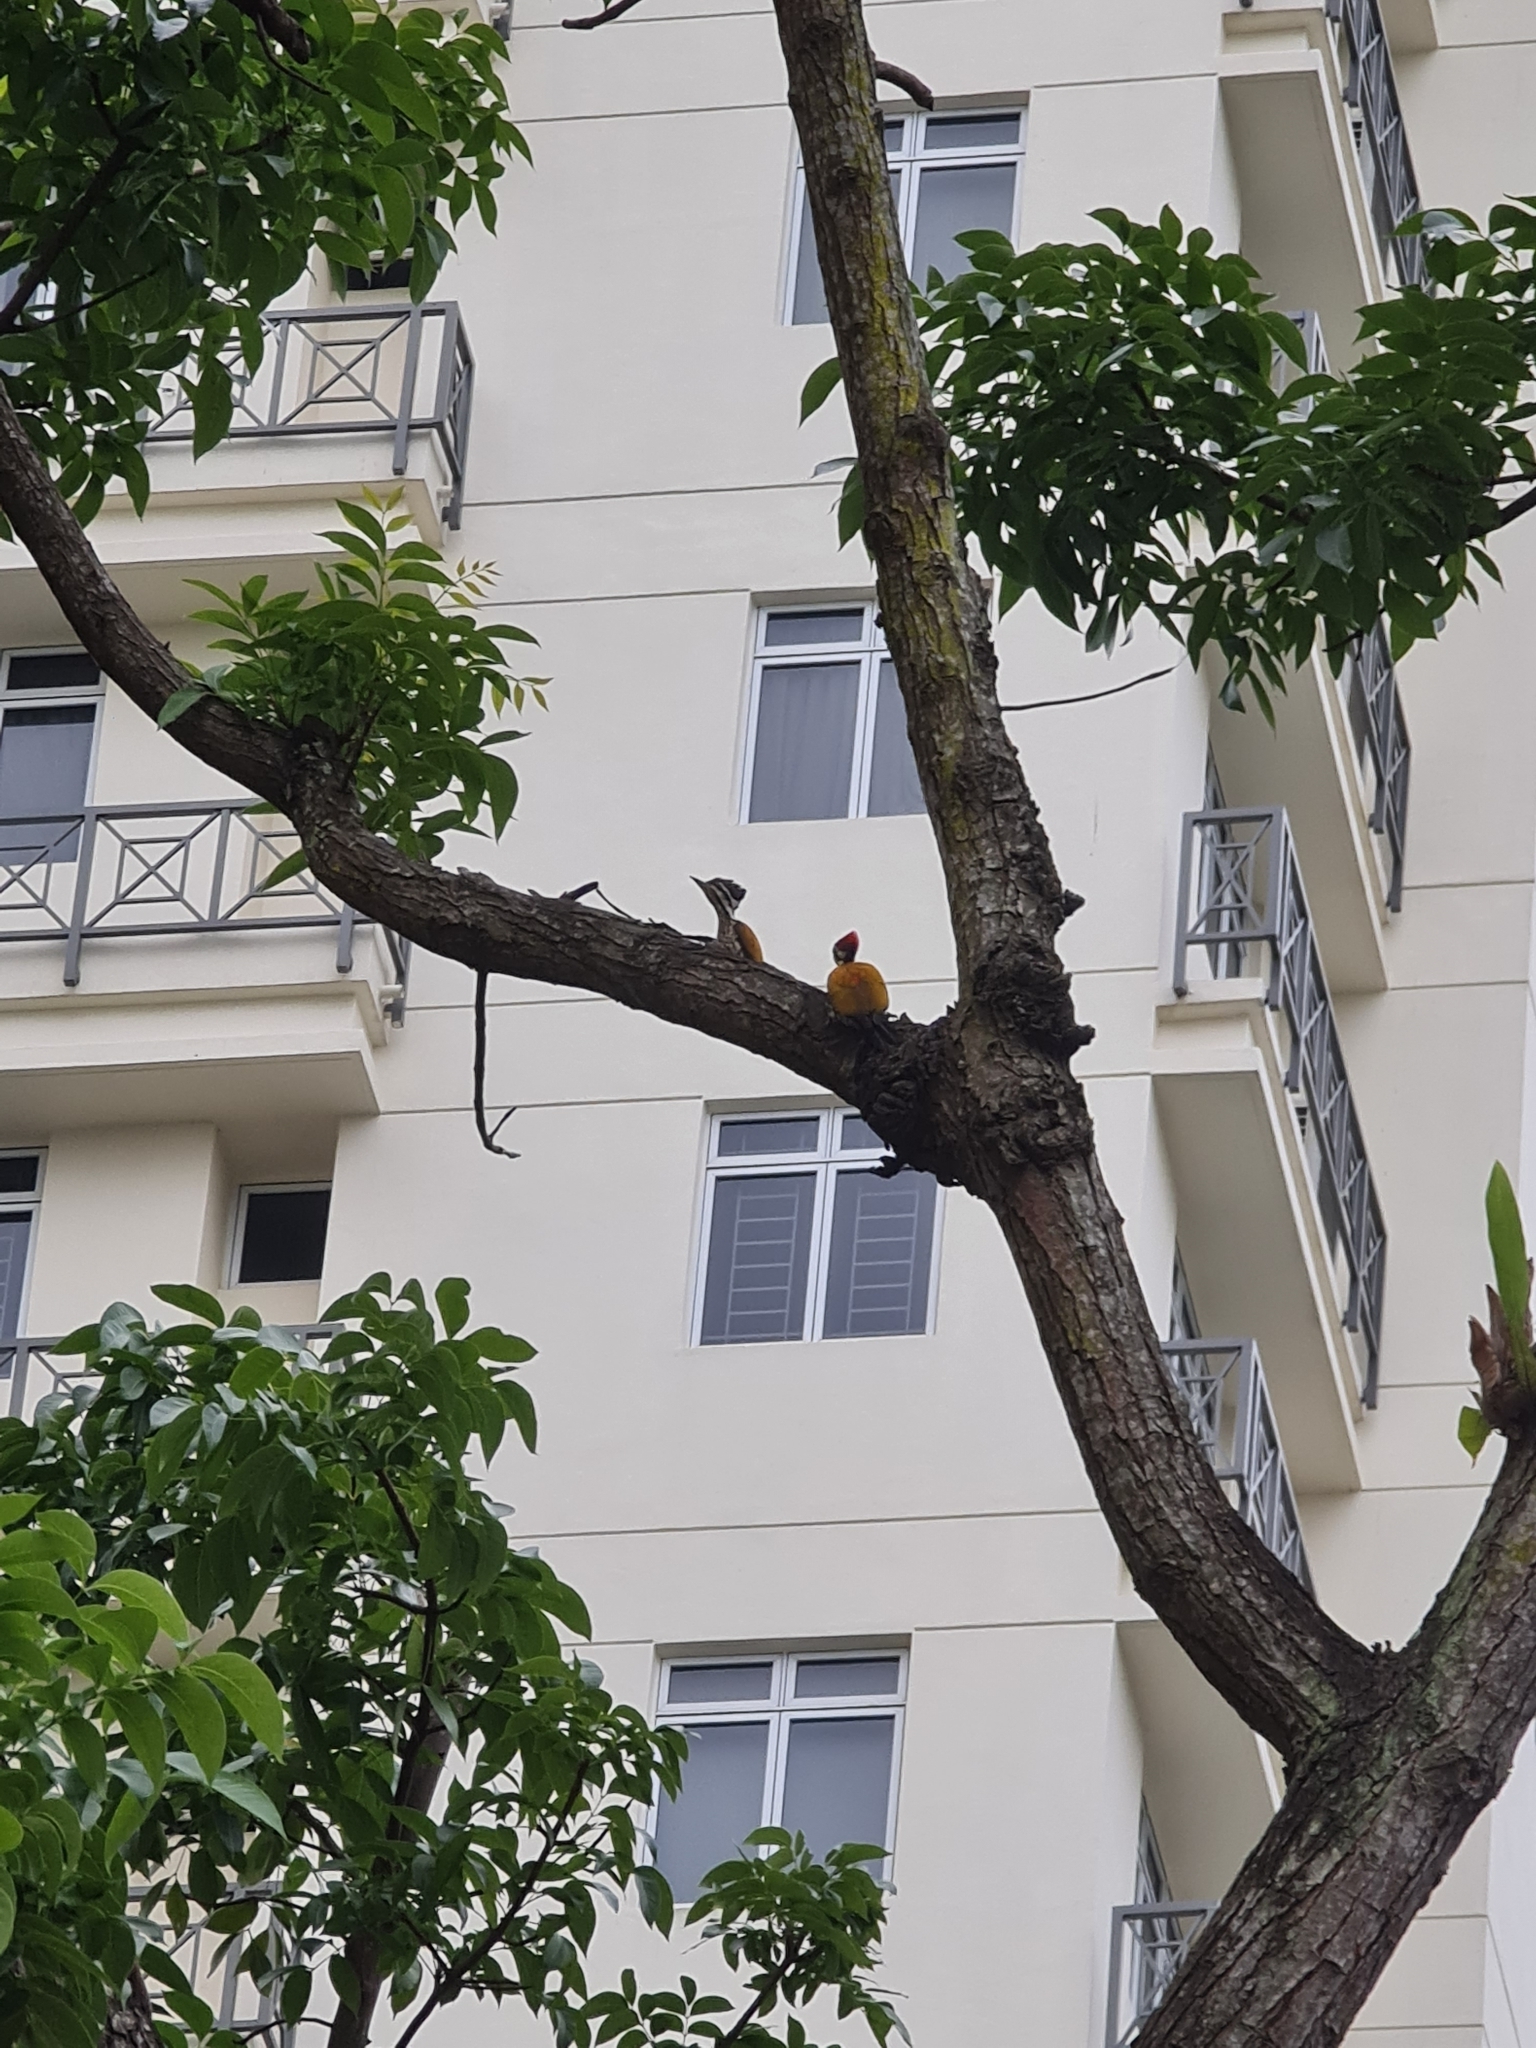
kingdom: Animalia
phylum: Chordata
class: Aves
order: Piciformes
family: Picidae
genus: Dinopium
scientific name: Dinopium javanense
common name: Common flameback
